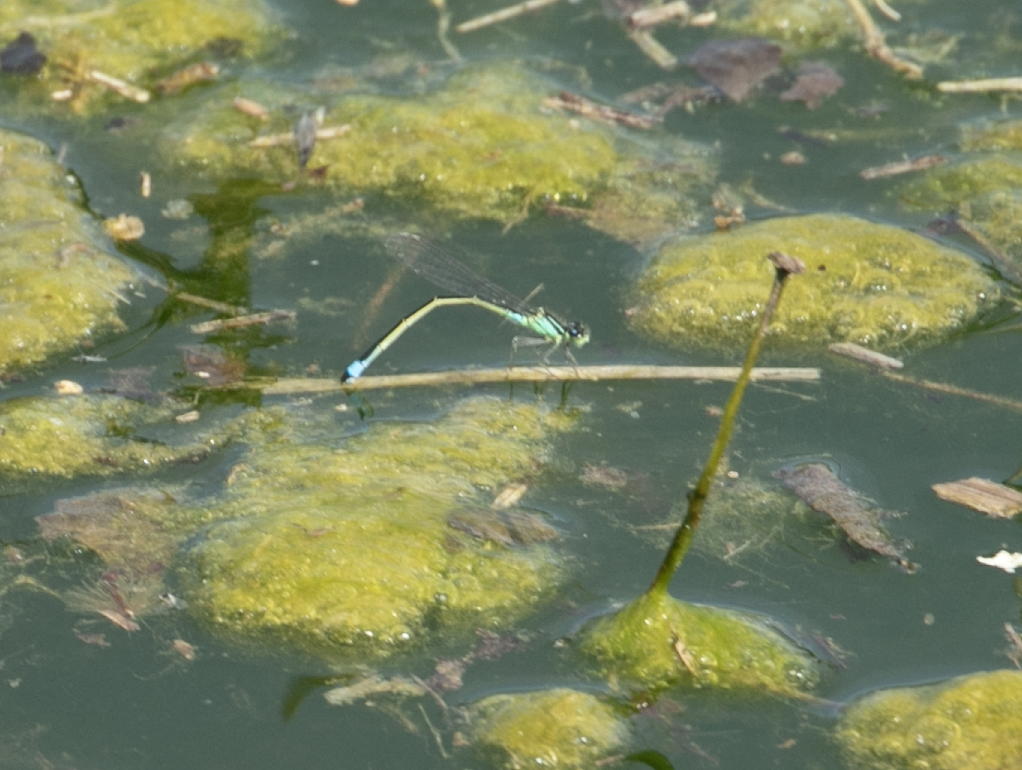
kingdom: Animalia
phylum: Arthropoda
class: Insecta
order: Odonata
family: Coenagrionidae
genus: Ischnura
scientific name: Ischnura elegans
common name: Blue-tailed damselfly
